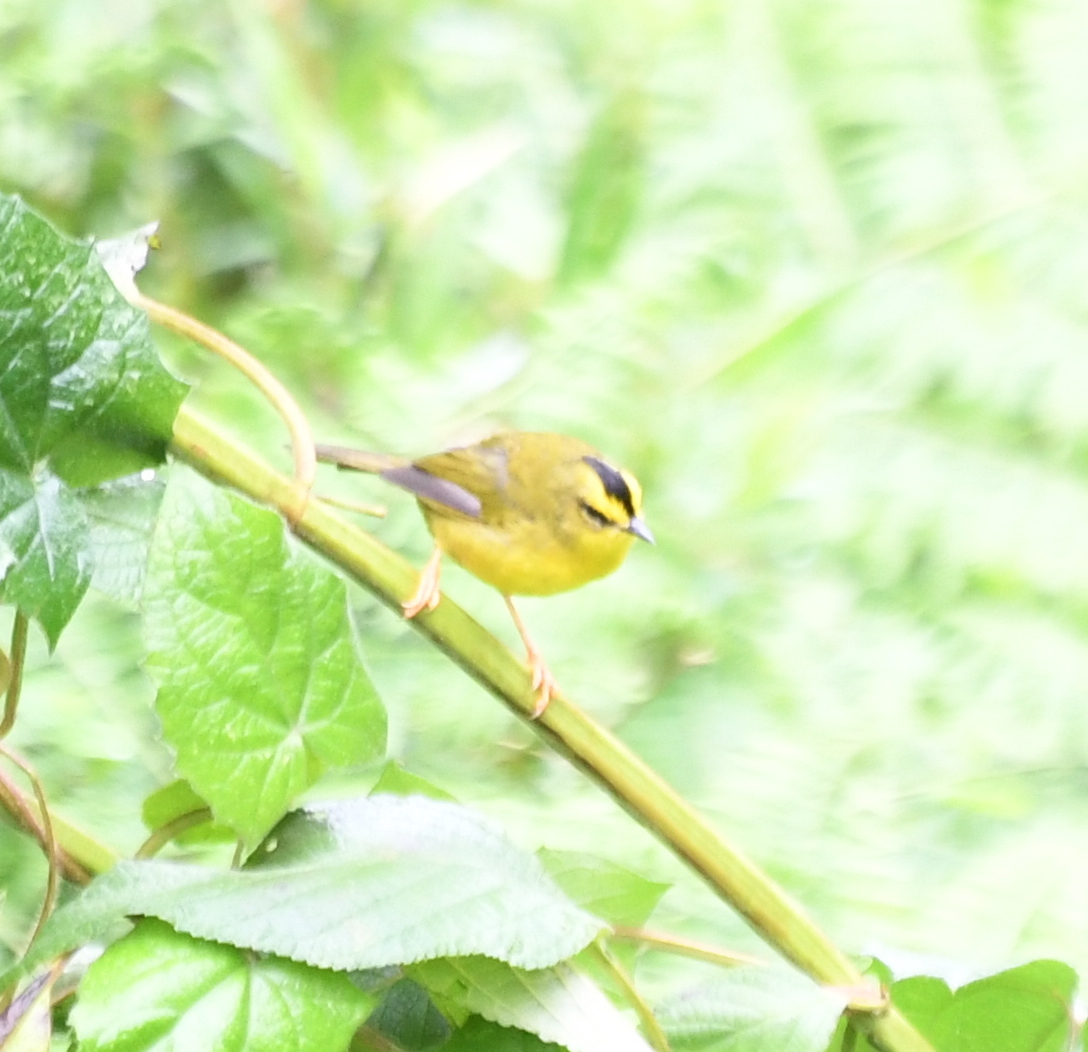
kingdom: Animalia
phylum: Chordata
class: Aves
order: Passeriformes
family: Parulidae
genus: Myiothlypis
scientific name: Myiothlypis nigrocristata
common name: Black-crested warbler
